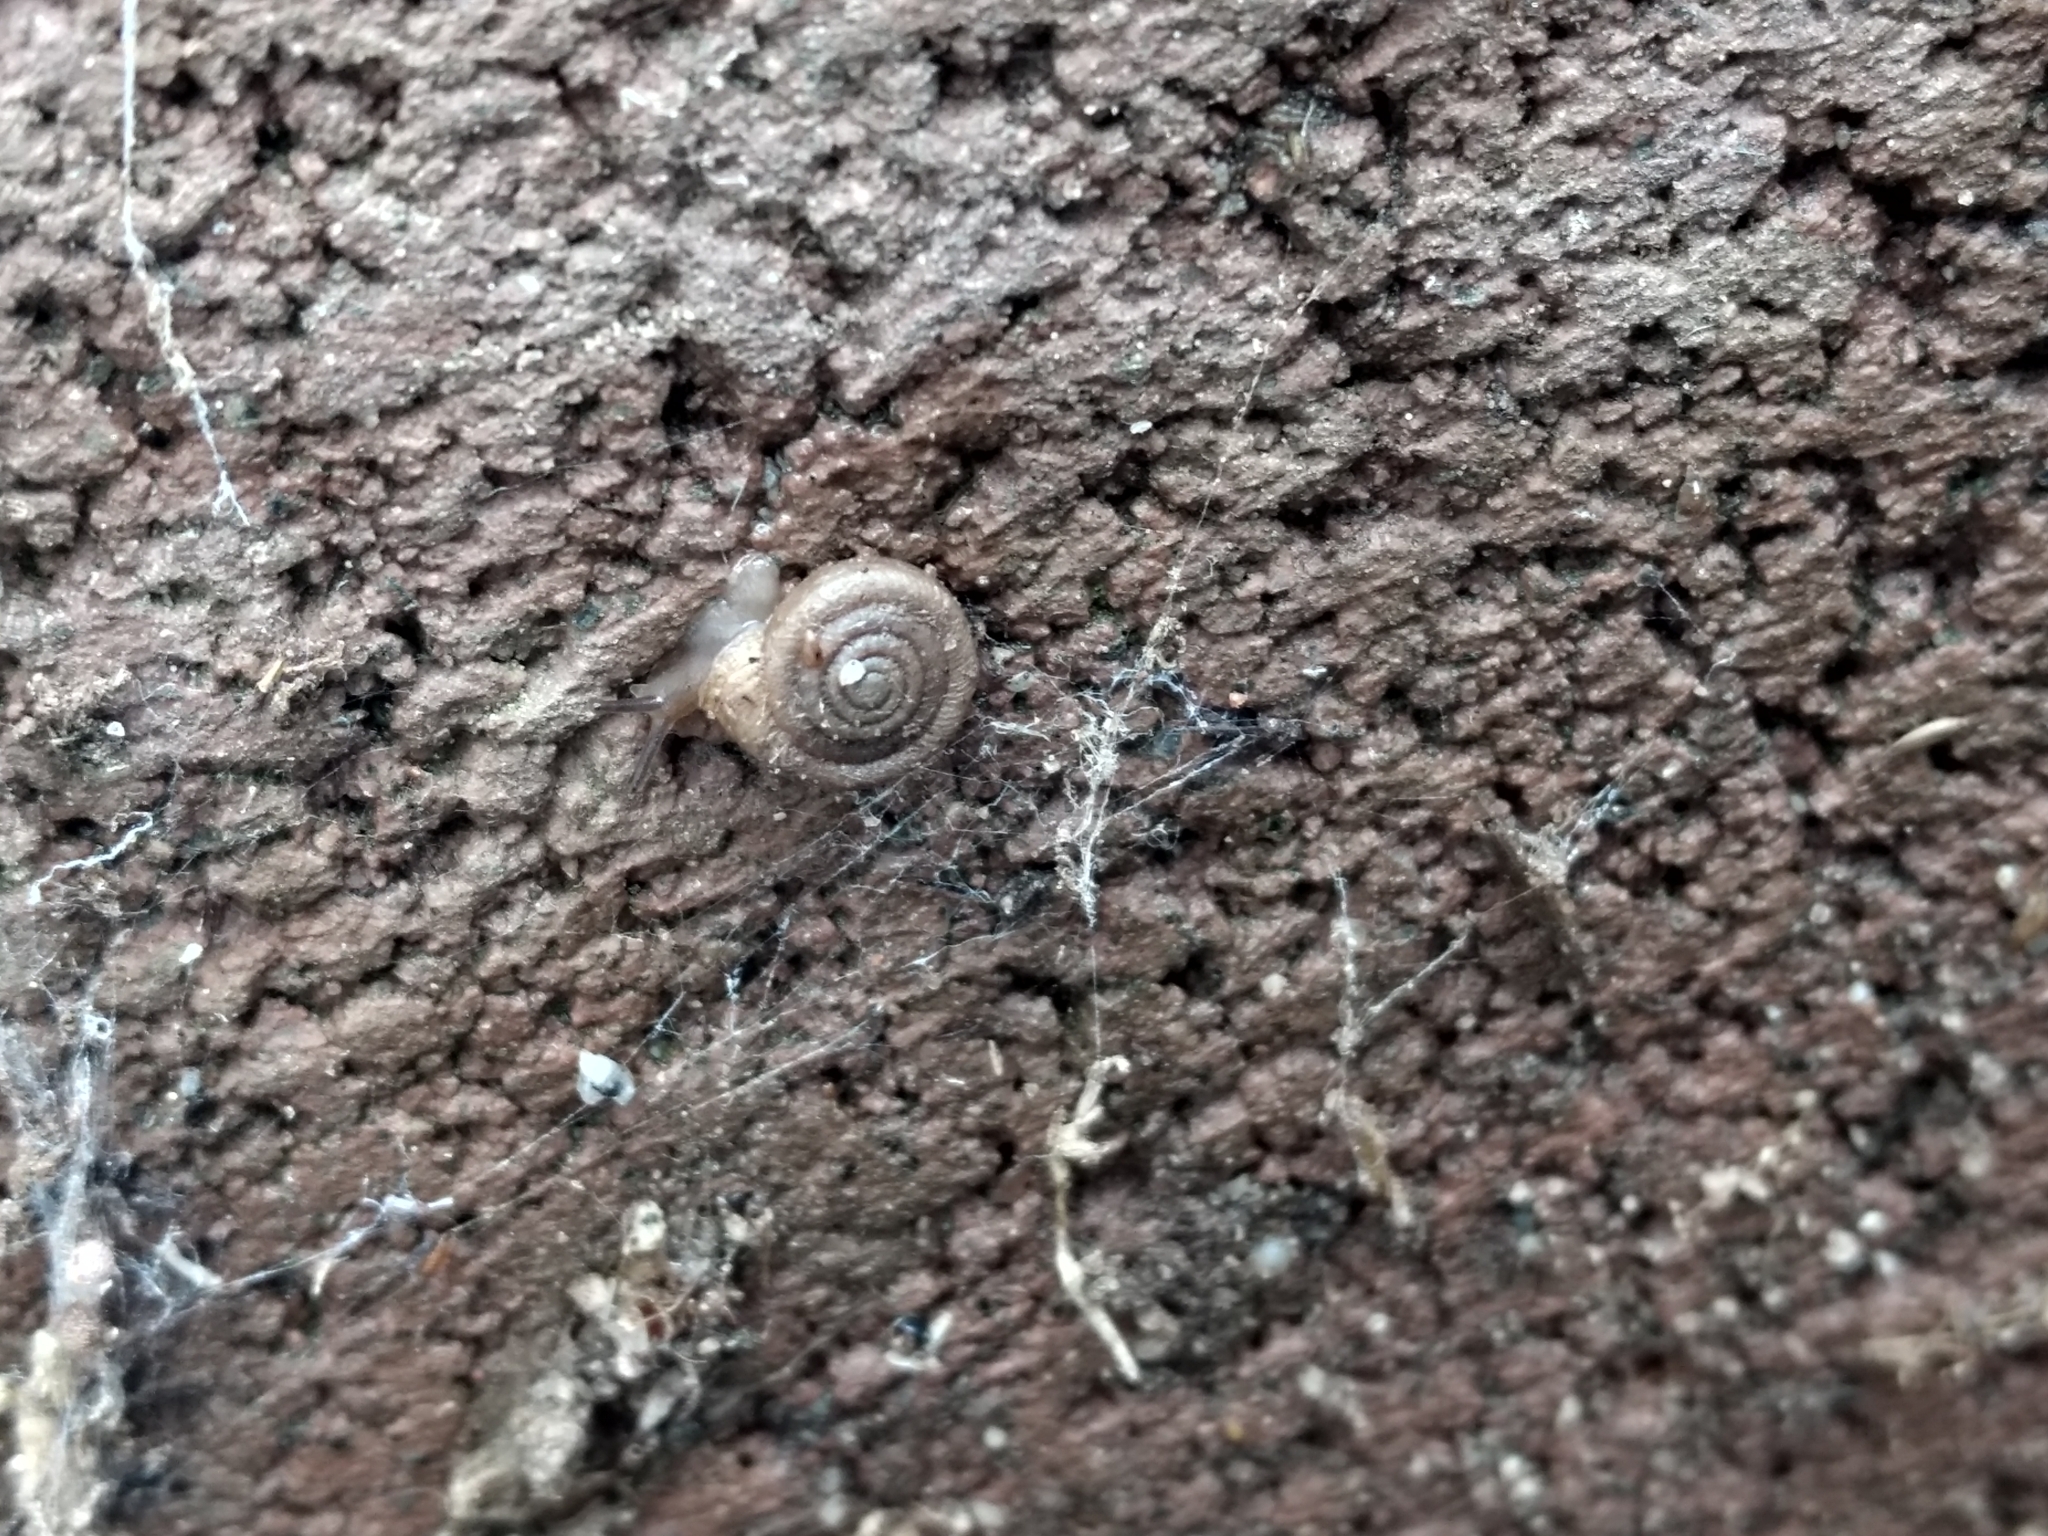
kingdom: Animalia
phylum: Mollusca
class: Gastropoda
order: Stylommatophora
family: Polygyridae
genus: Polygyra
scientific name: Polygyra cereolus
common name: Southern flatcone snail
